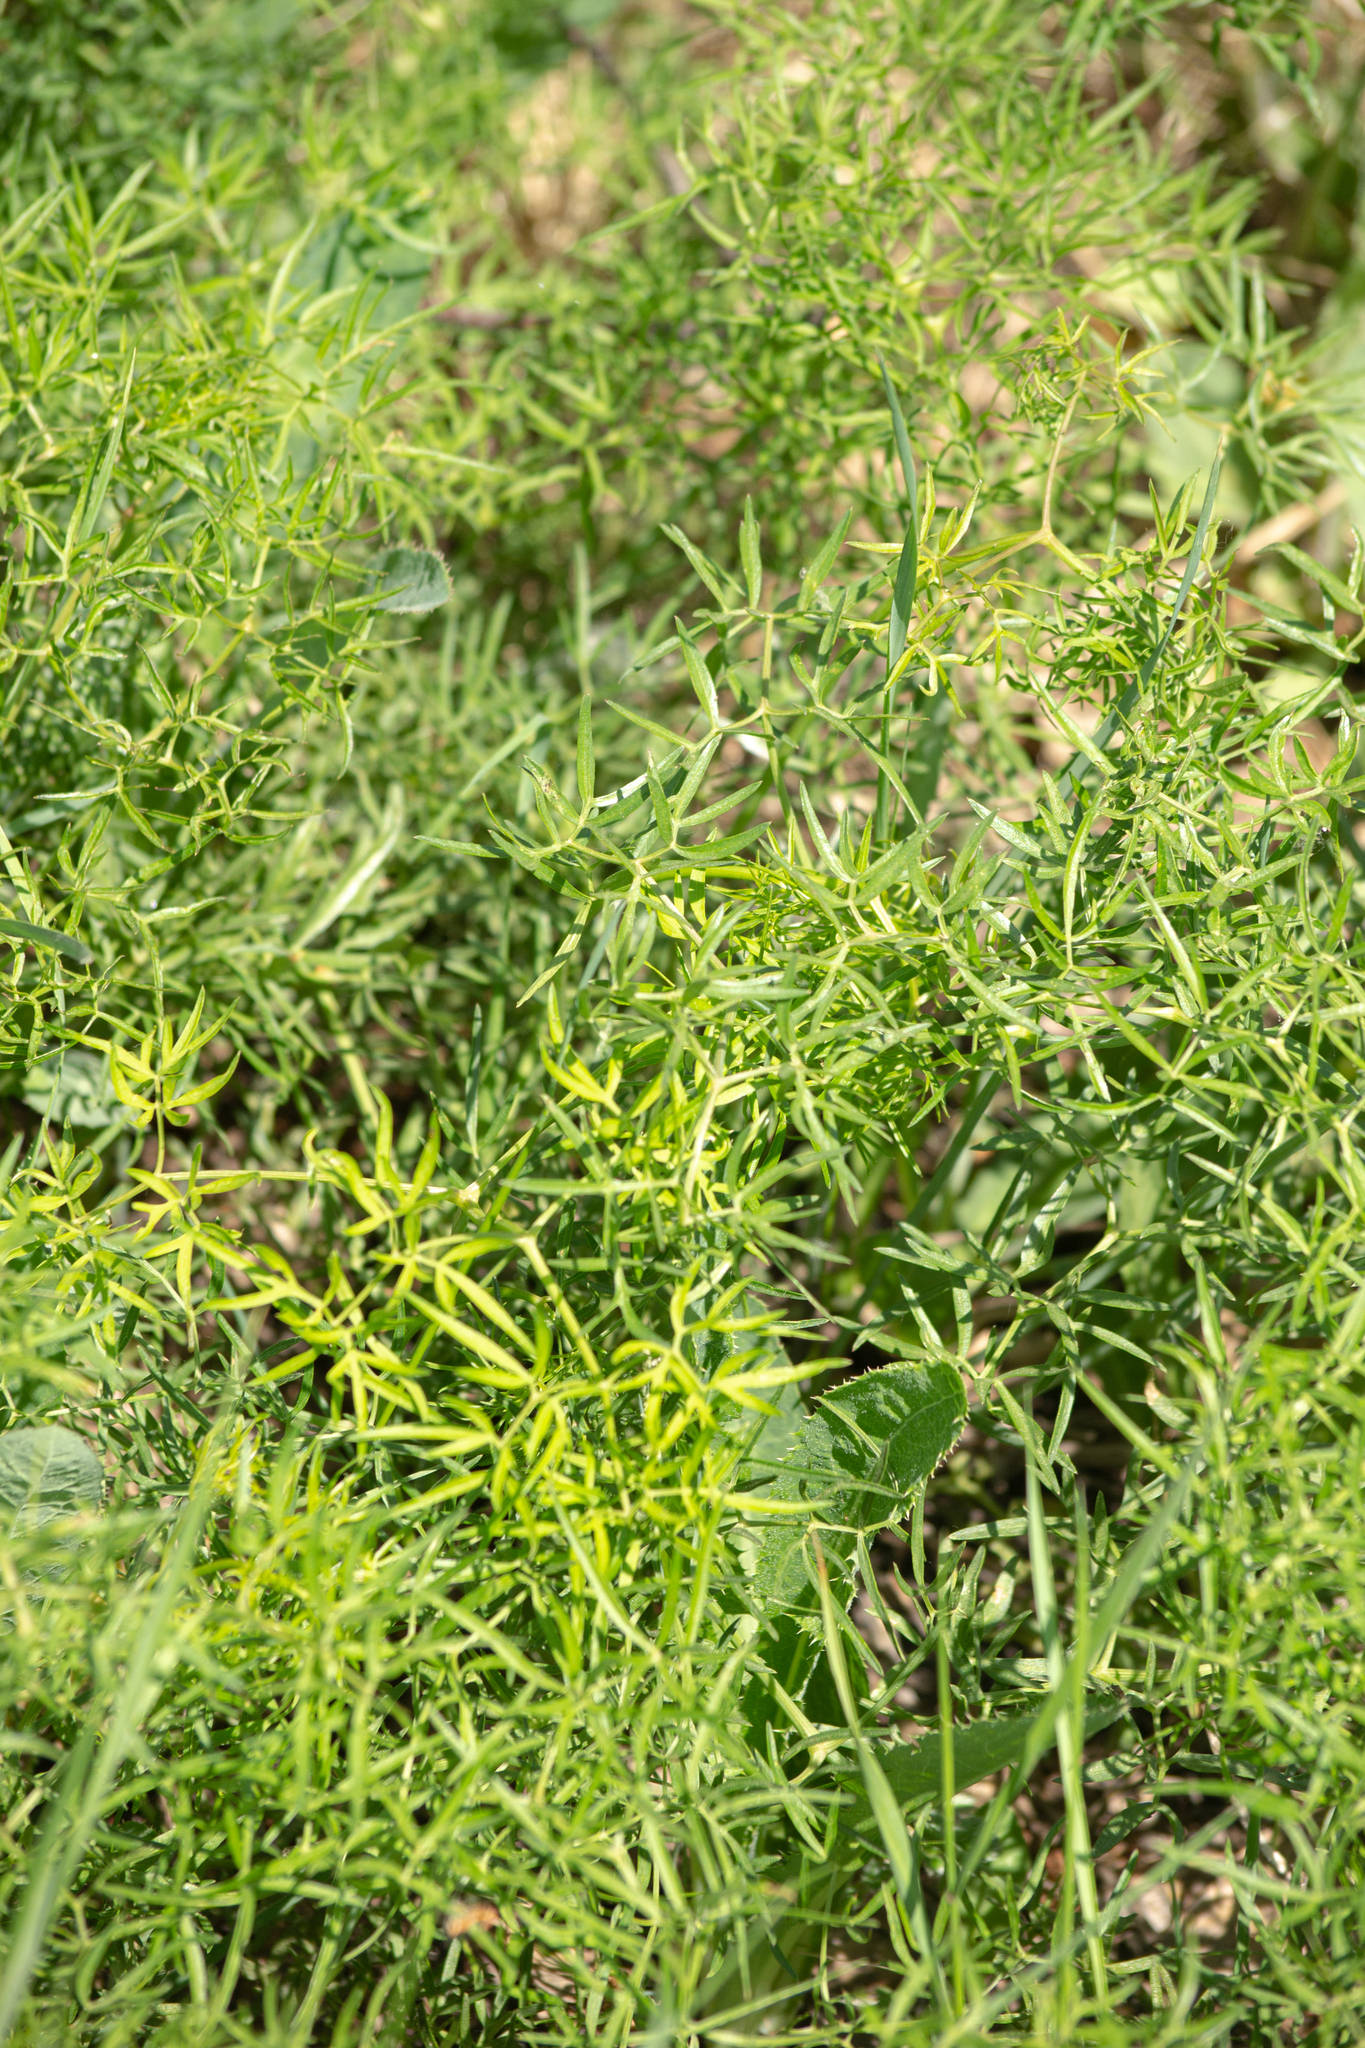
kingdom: Plantae
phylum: Tracheophyta
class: Magnoliopsida
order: Apiales
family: Apiaceae
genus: Cenolophium
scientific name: Cenolophium fischeri
